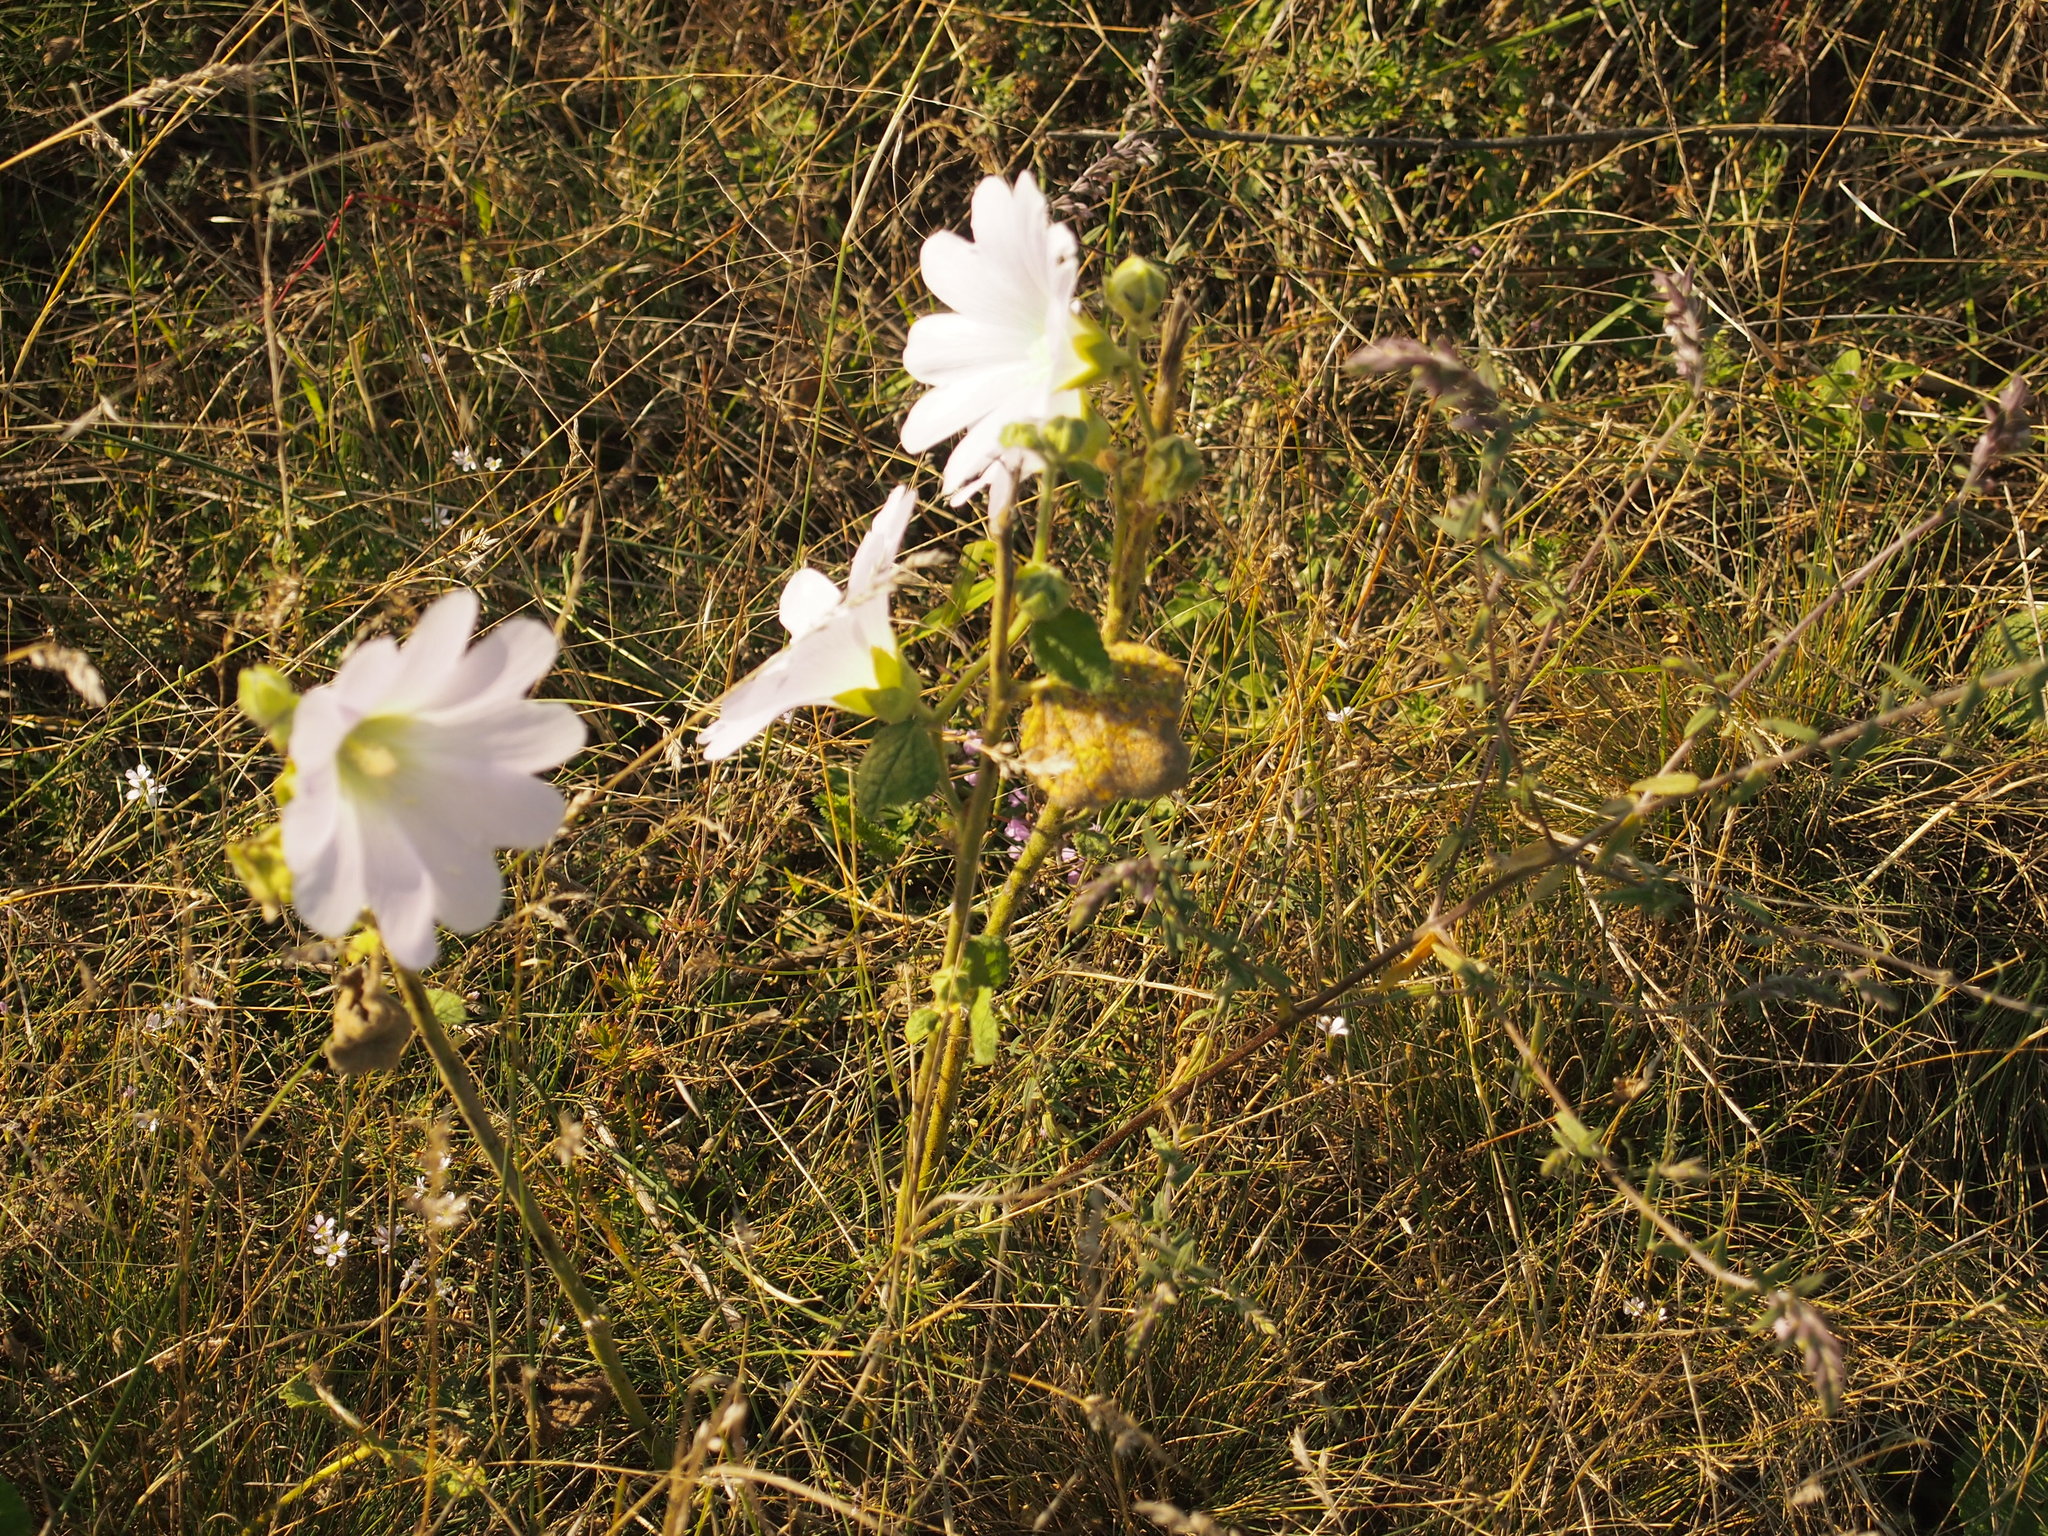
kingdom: Plantae
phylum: Tracheophyta
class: Magnoliopsida
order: Malvales
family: Malvaceae
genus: Alcea
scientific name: Alcea biennis
